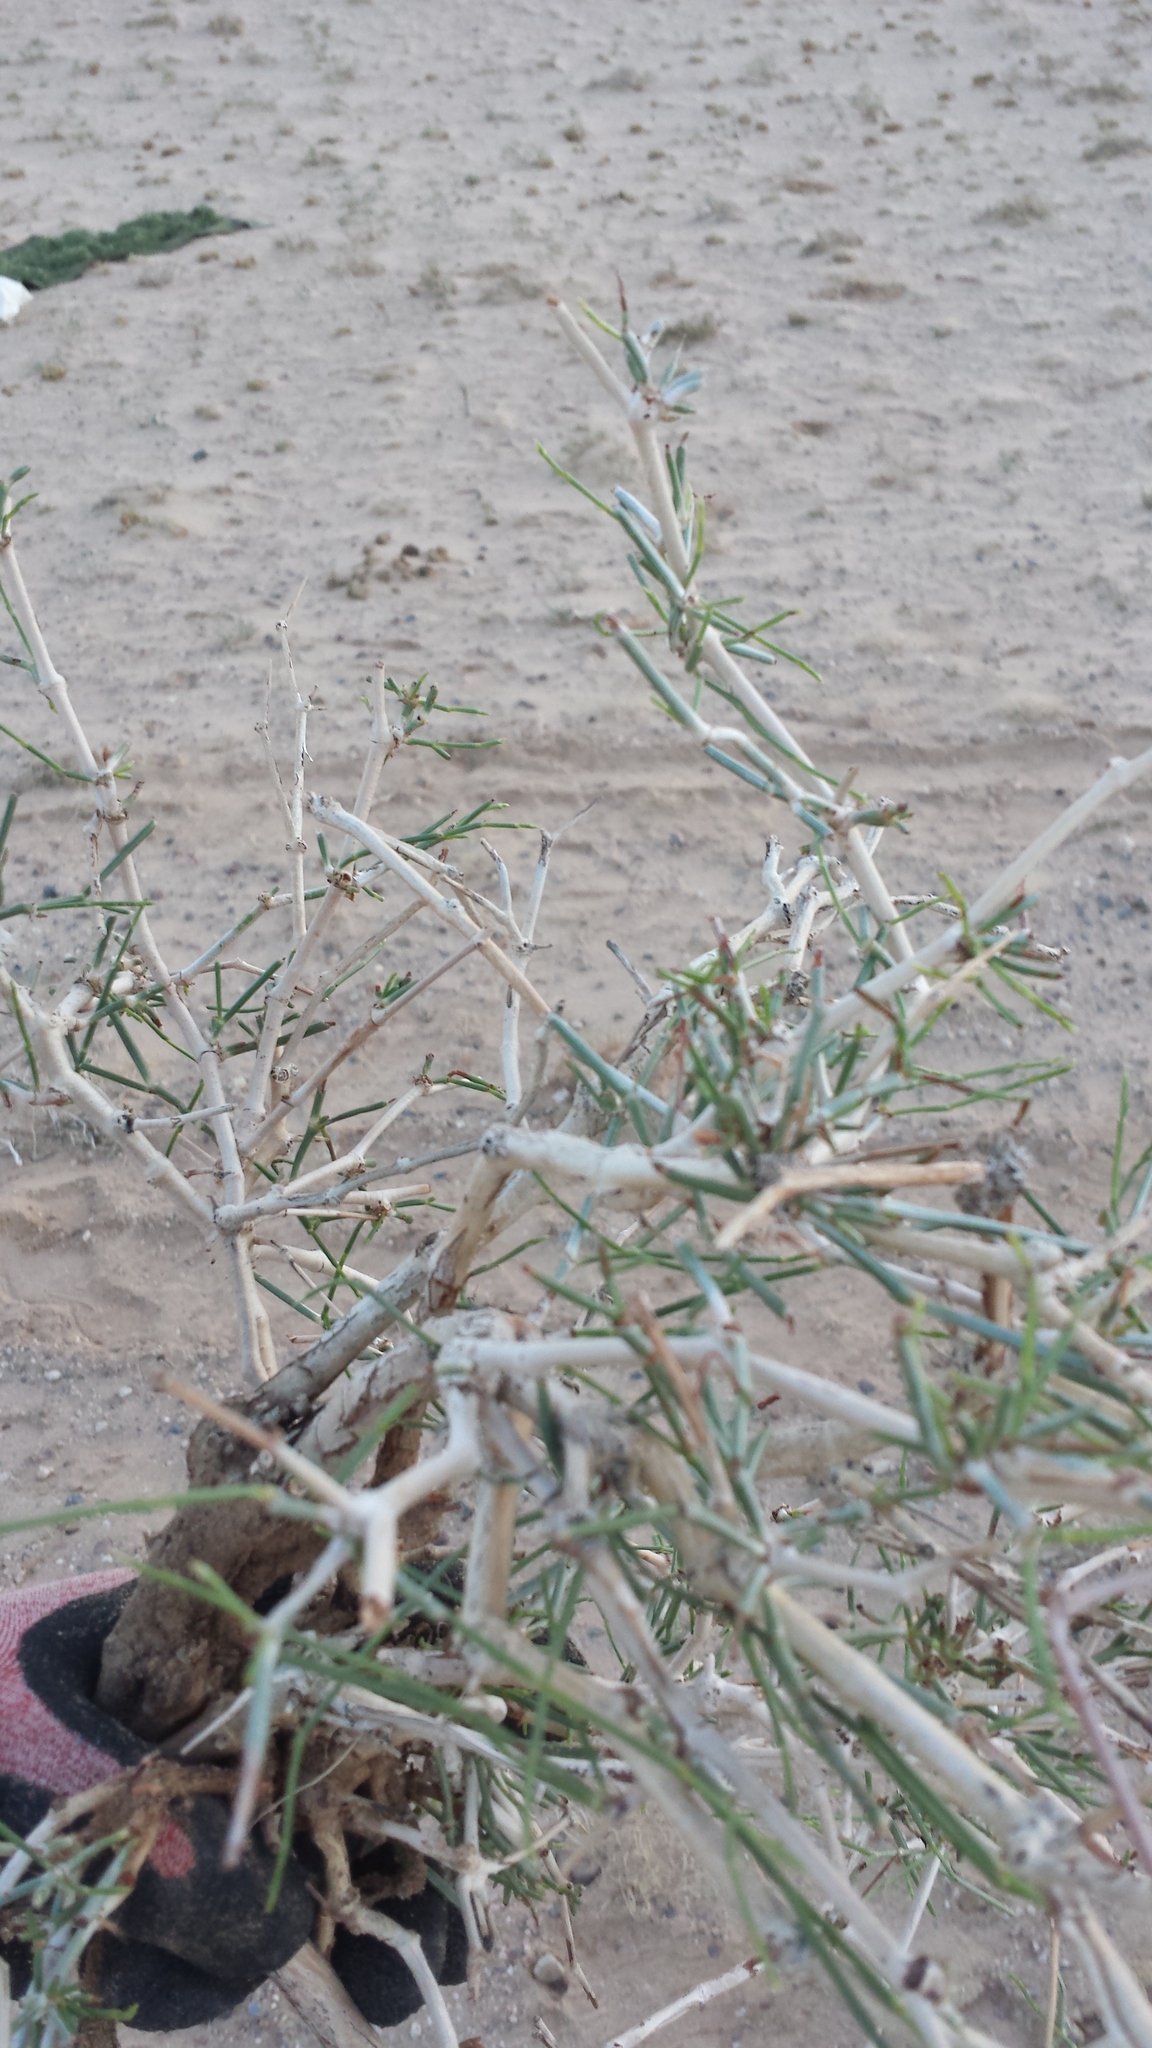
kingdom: Plantae
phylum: Tracheophyta
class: Magnoliopsida
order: Caryophyllales
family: Polygonaceae
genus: Calligonum
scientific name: Calligonum mongolicum
